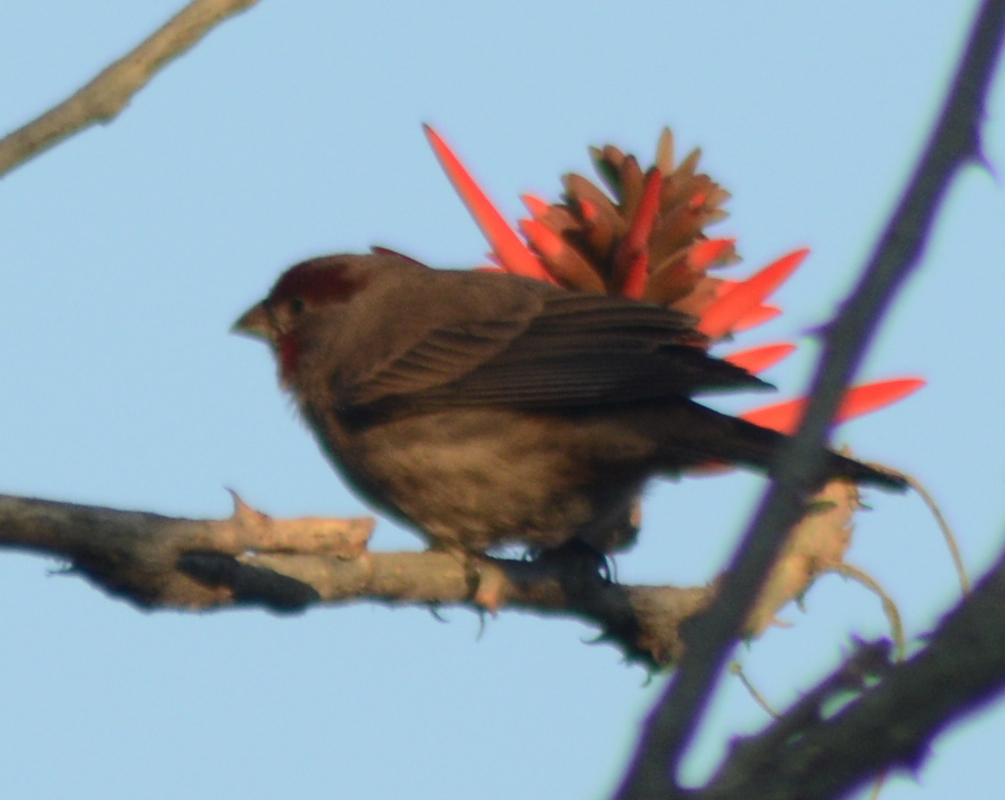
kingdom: Animalia
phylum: Chordata
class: Aves
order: Passeriformes
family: Fringillidae
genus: Haemorhous
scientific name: Haemorhous mexicanus
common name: House finch
